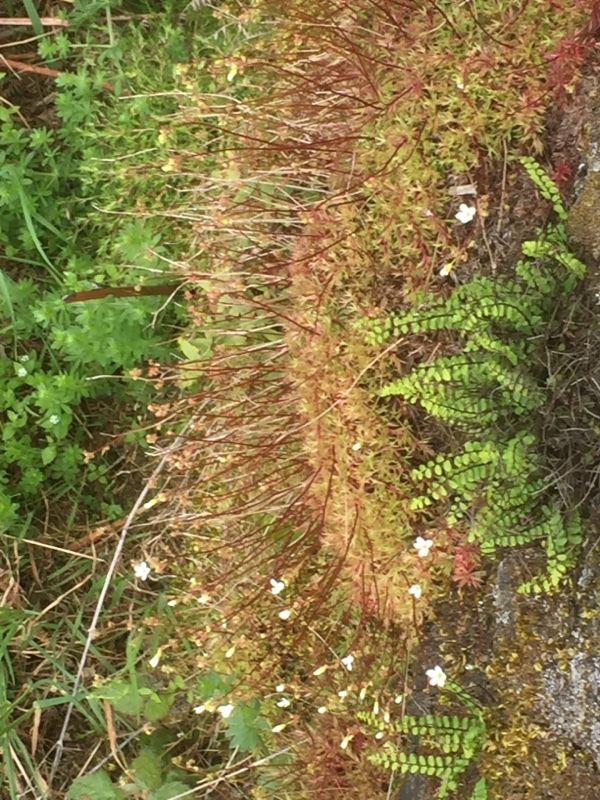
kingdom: Plantae
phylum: Tracheophyta
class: Magnoliopsida
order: Saxifragales
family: Saxifragaceae
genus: Saxifraga
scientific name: Saxifraga fragosoi
